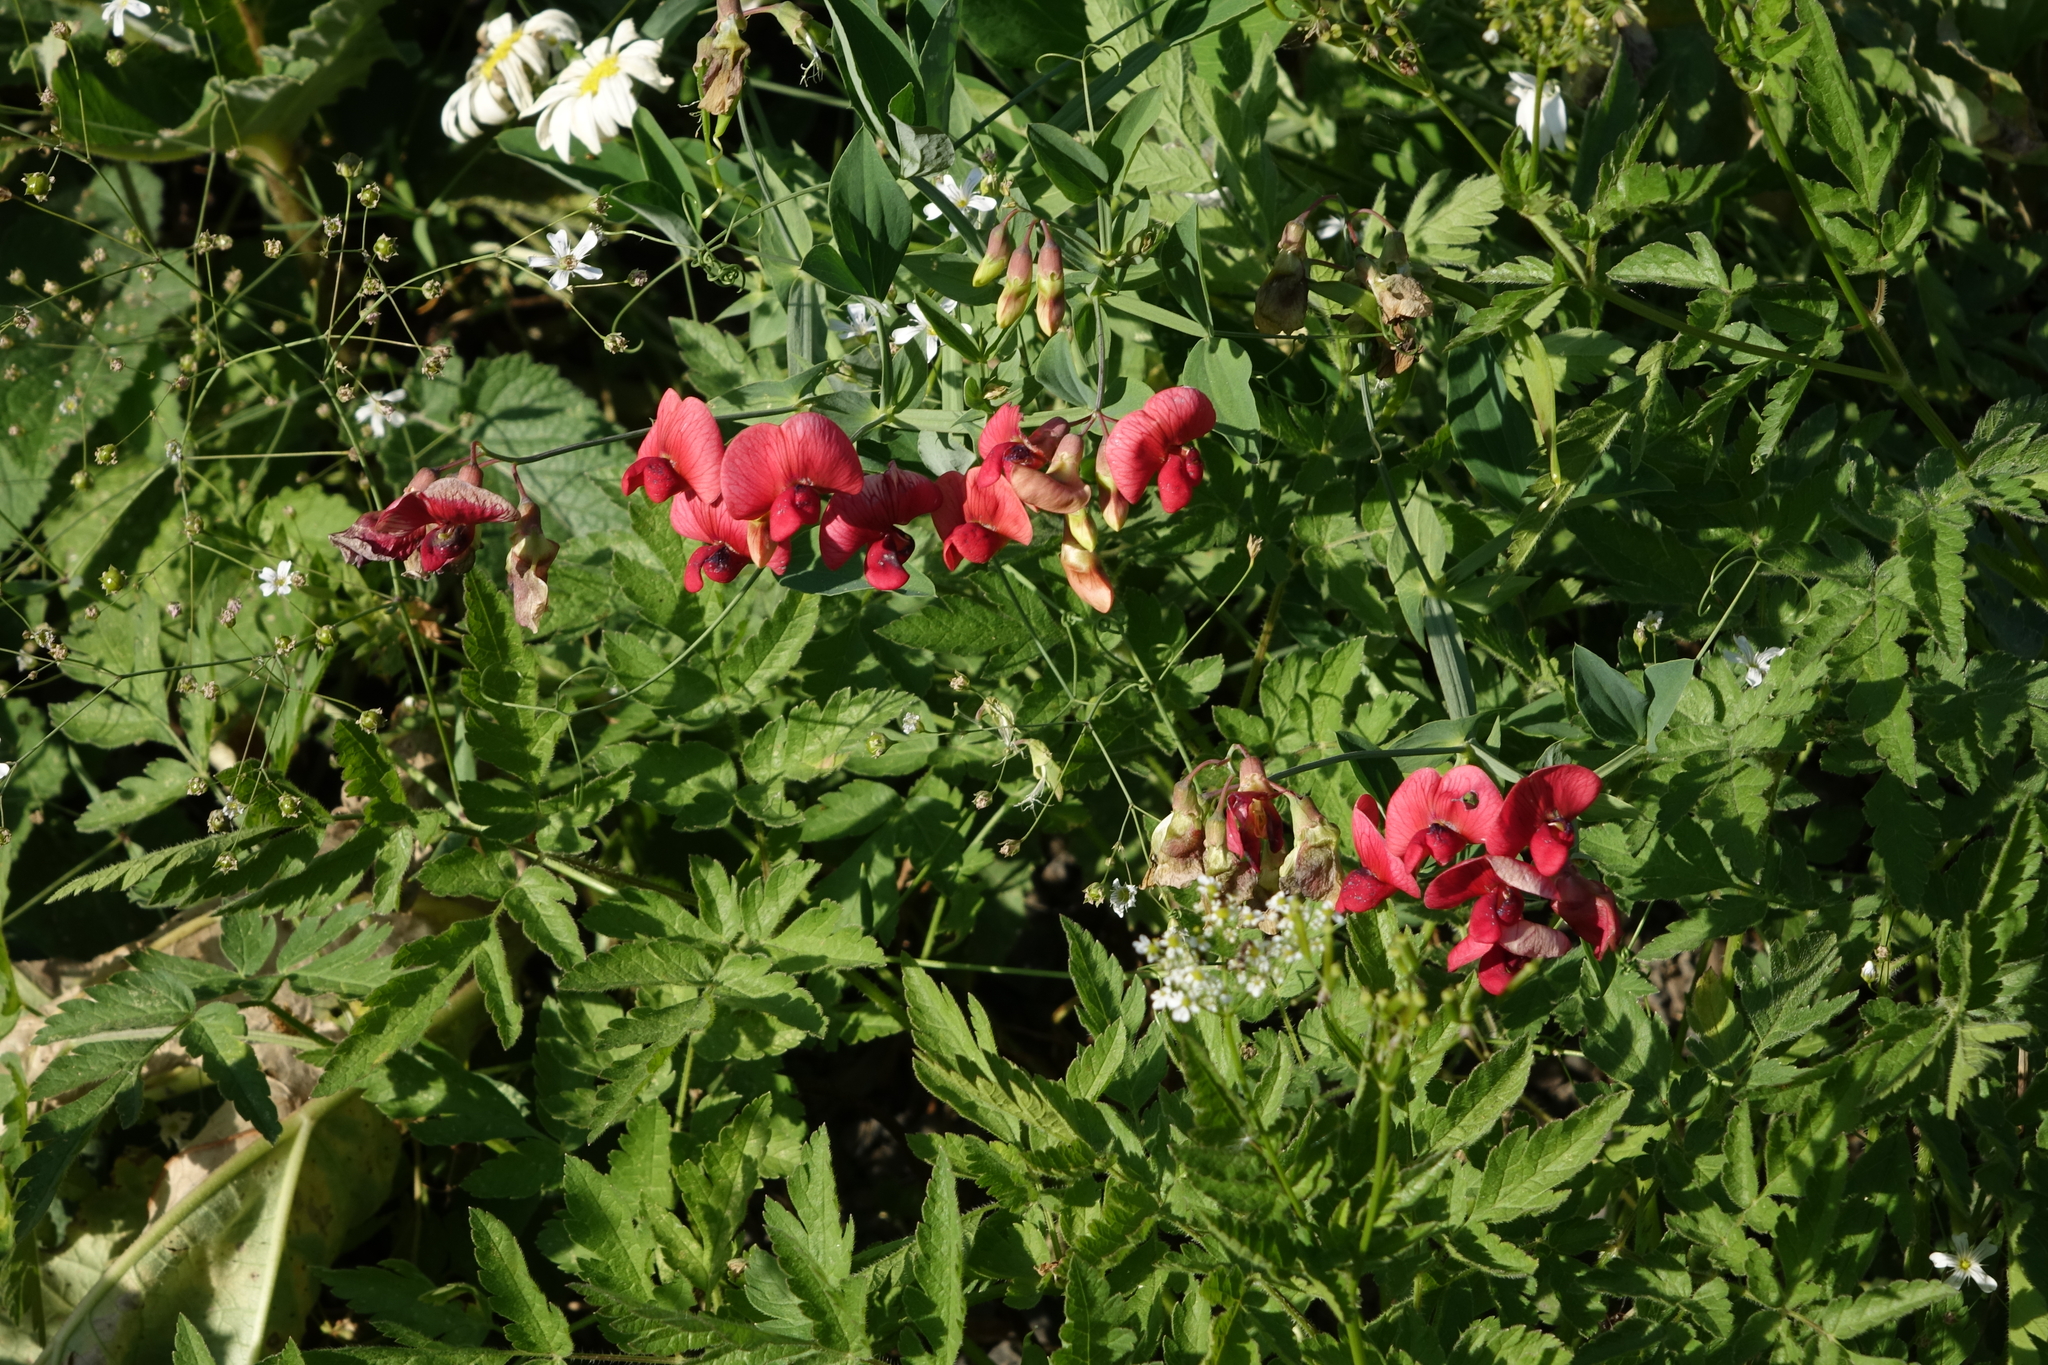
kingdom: Plantae
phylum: Tracheophyta
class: Magnoliopsida
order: Fabales
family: Fabaceae
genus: Lathyrus
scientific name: Lathyrus miniatus
